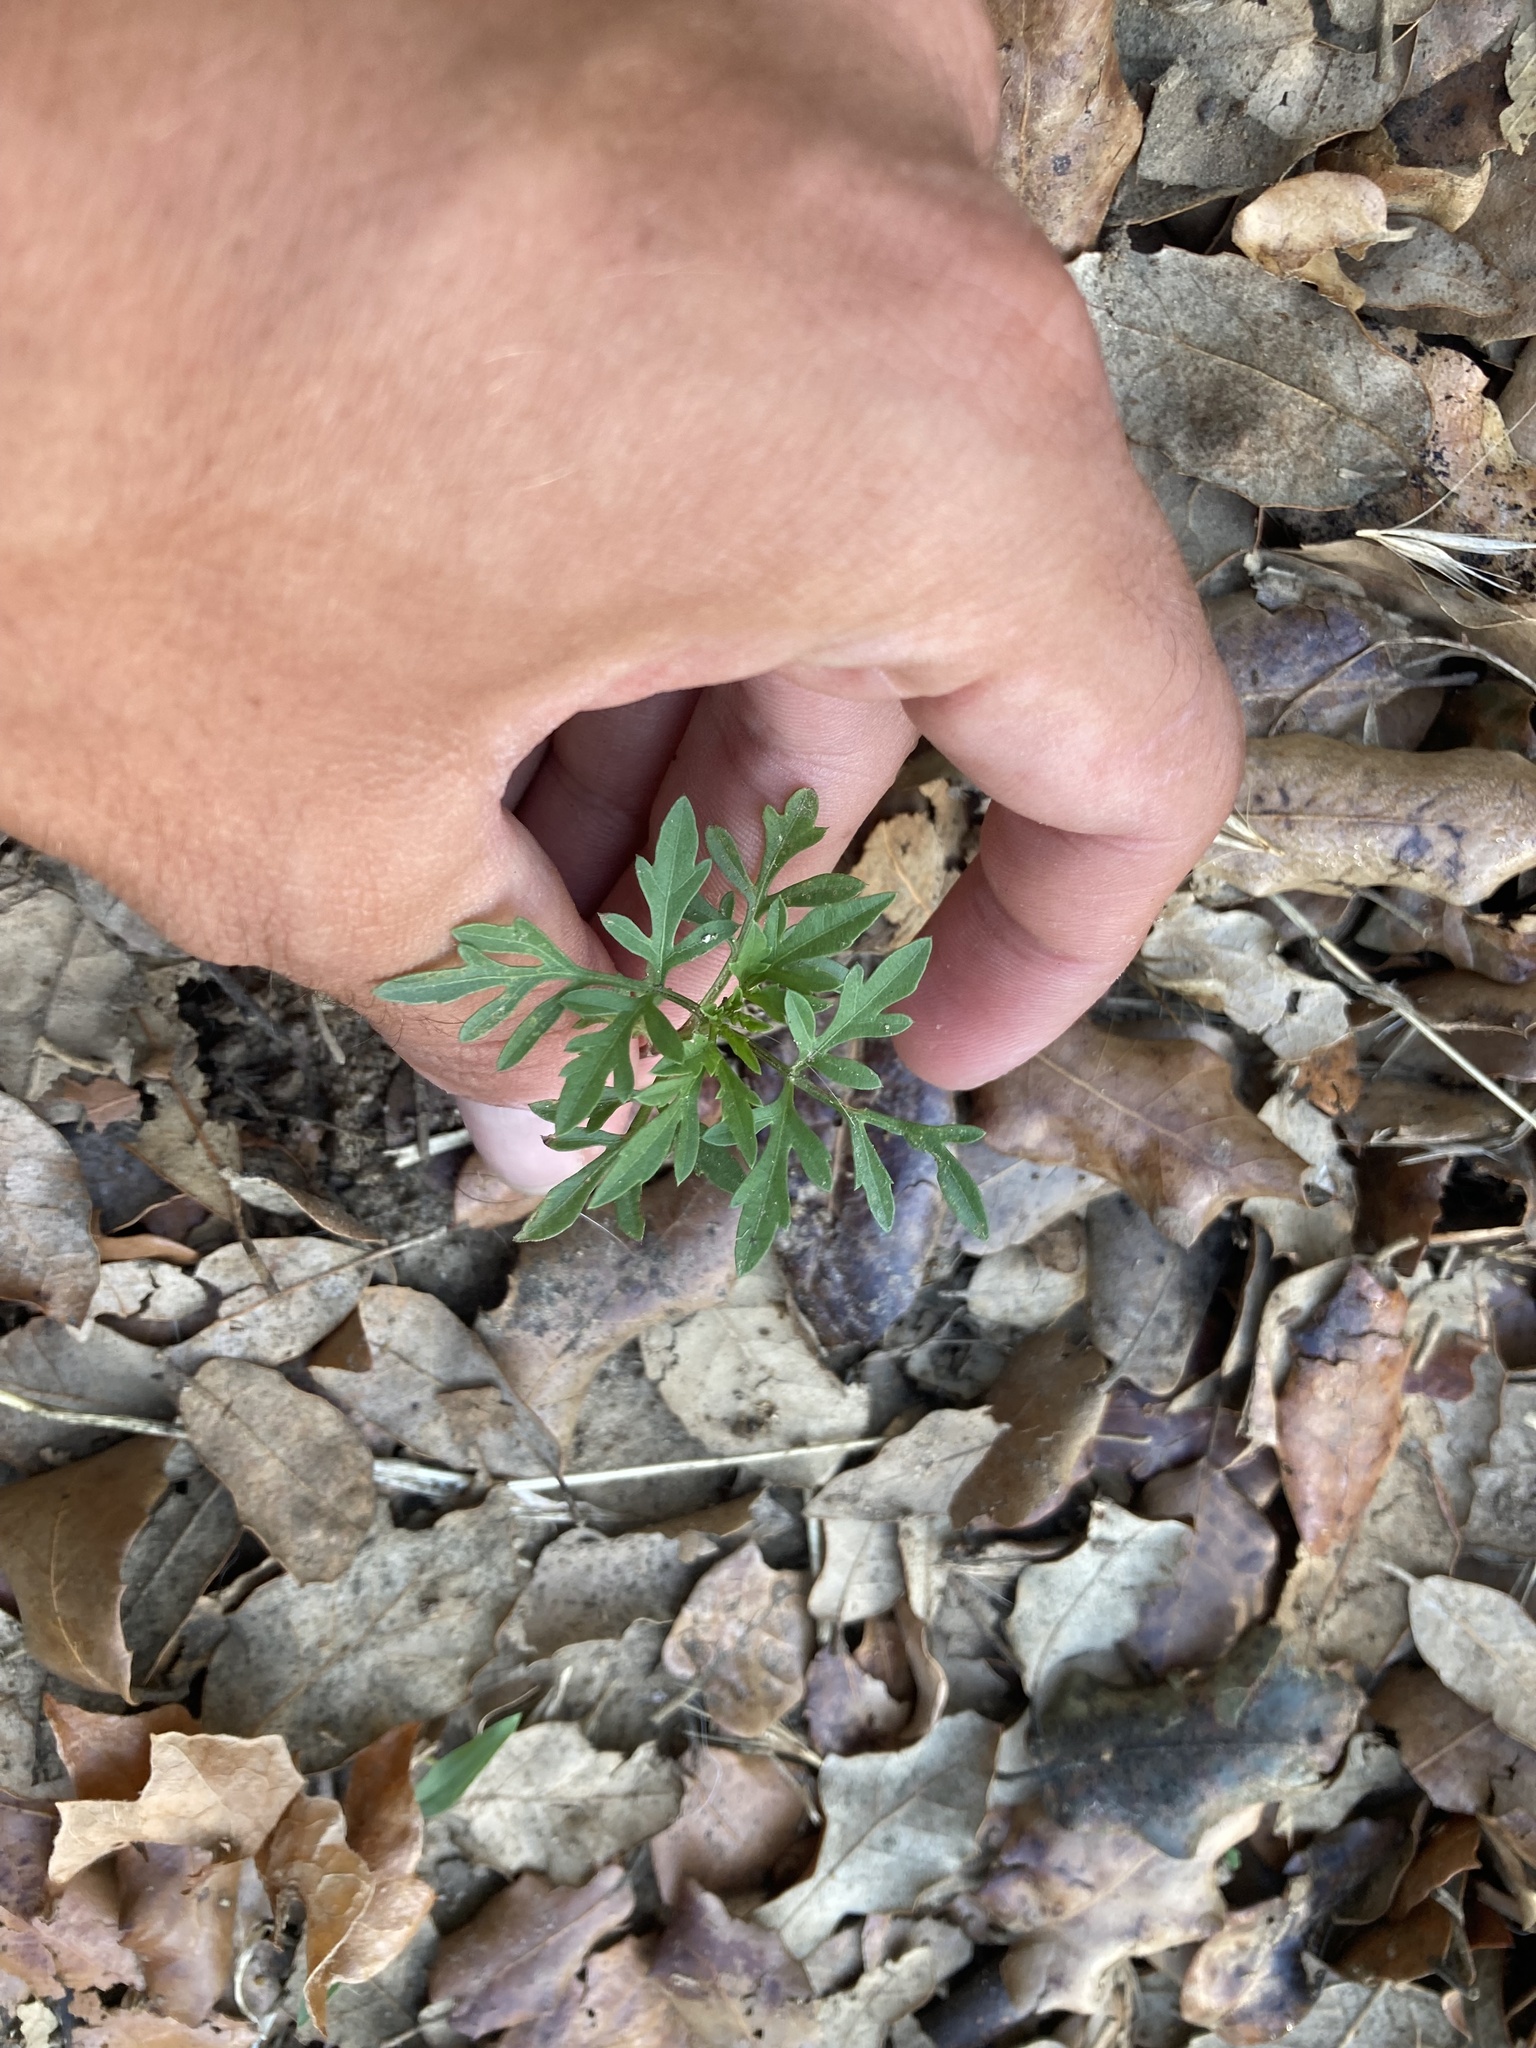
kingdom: Plantae
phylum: Tracheophyta
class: Magnoliopsida
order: Asterales
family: Asteraceae
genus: Bidens
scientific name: Bidens subalternans
